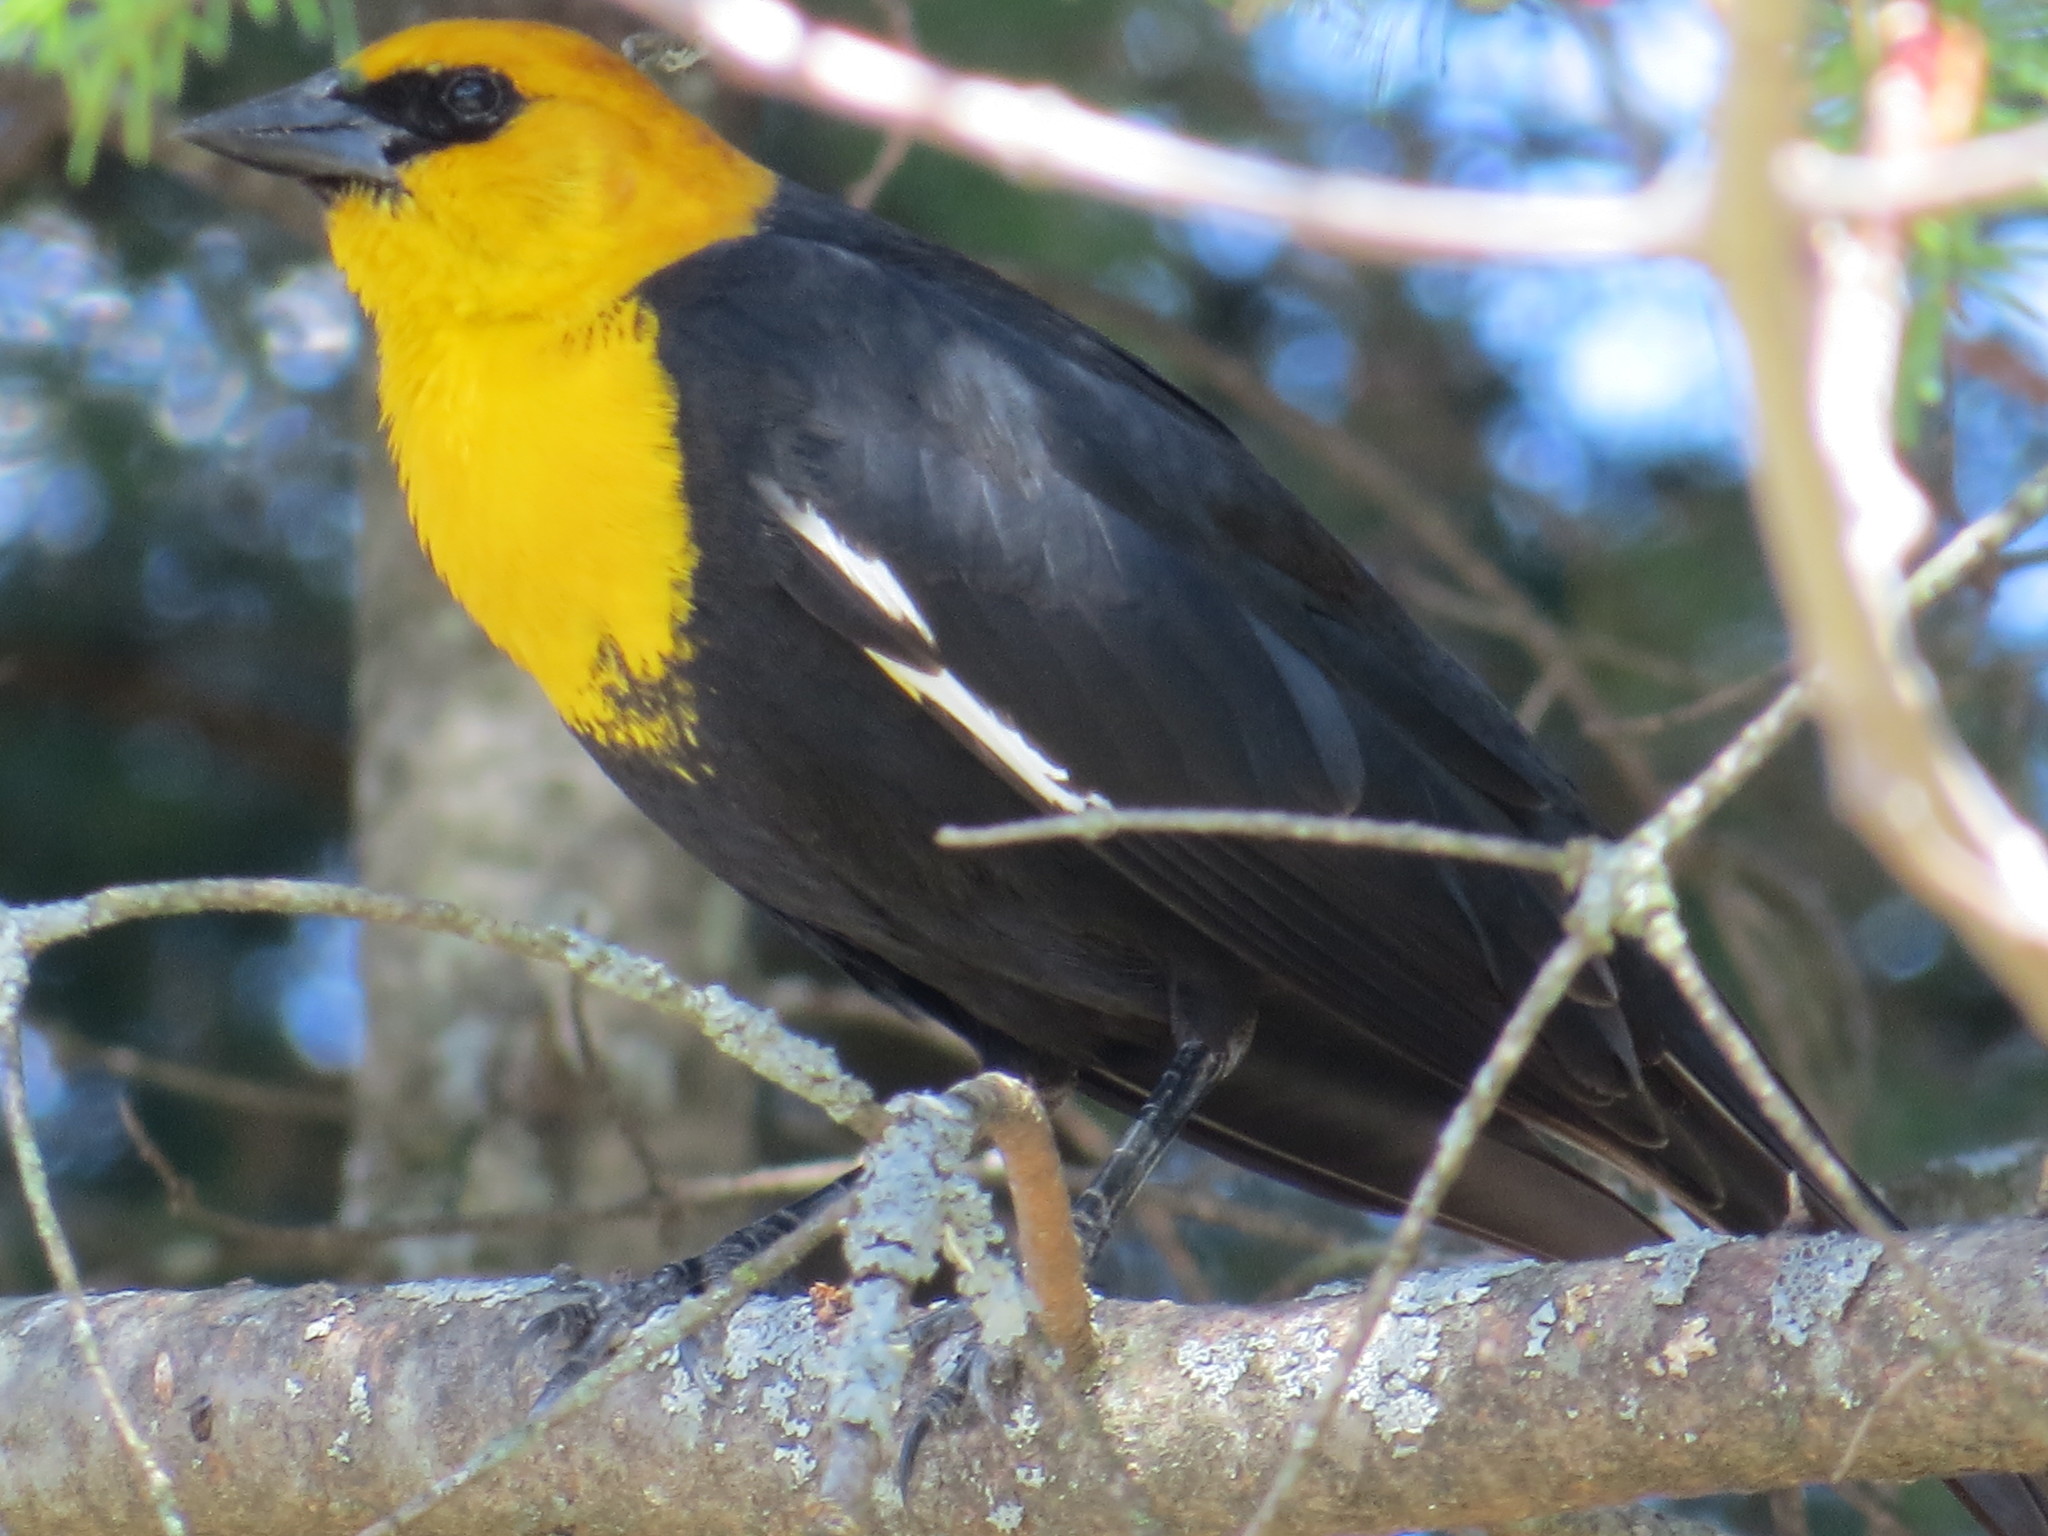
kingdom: Animalia
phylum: Chordata
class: Aves
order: Passeriformes
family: Icteridae
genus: Xanthocephalus
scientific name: Xanthocephalus xanthocephalus
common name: Yellow-headed blackbird
